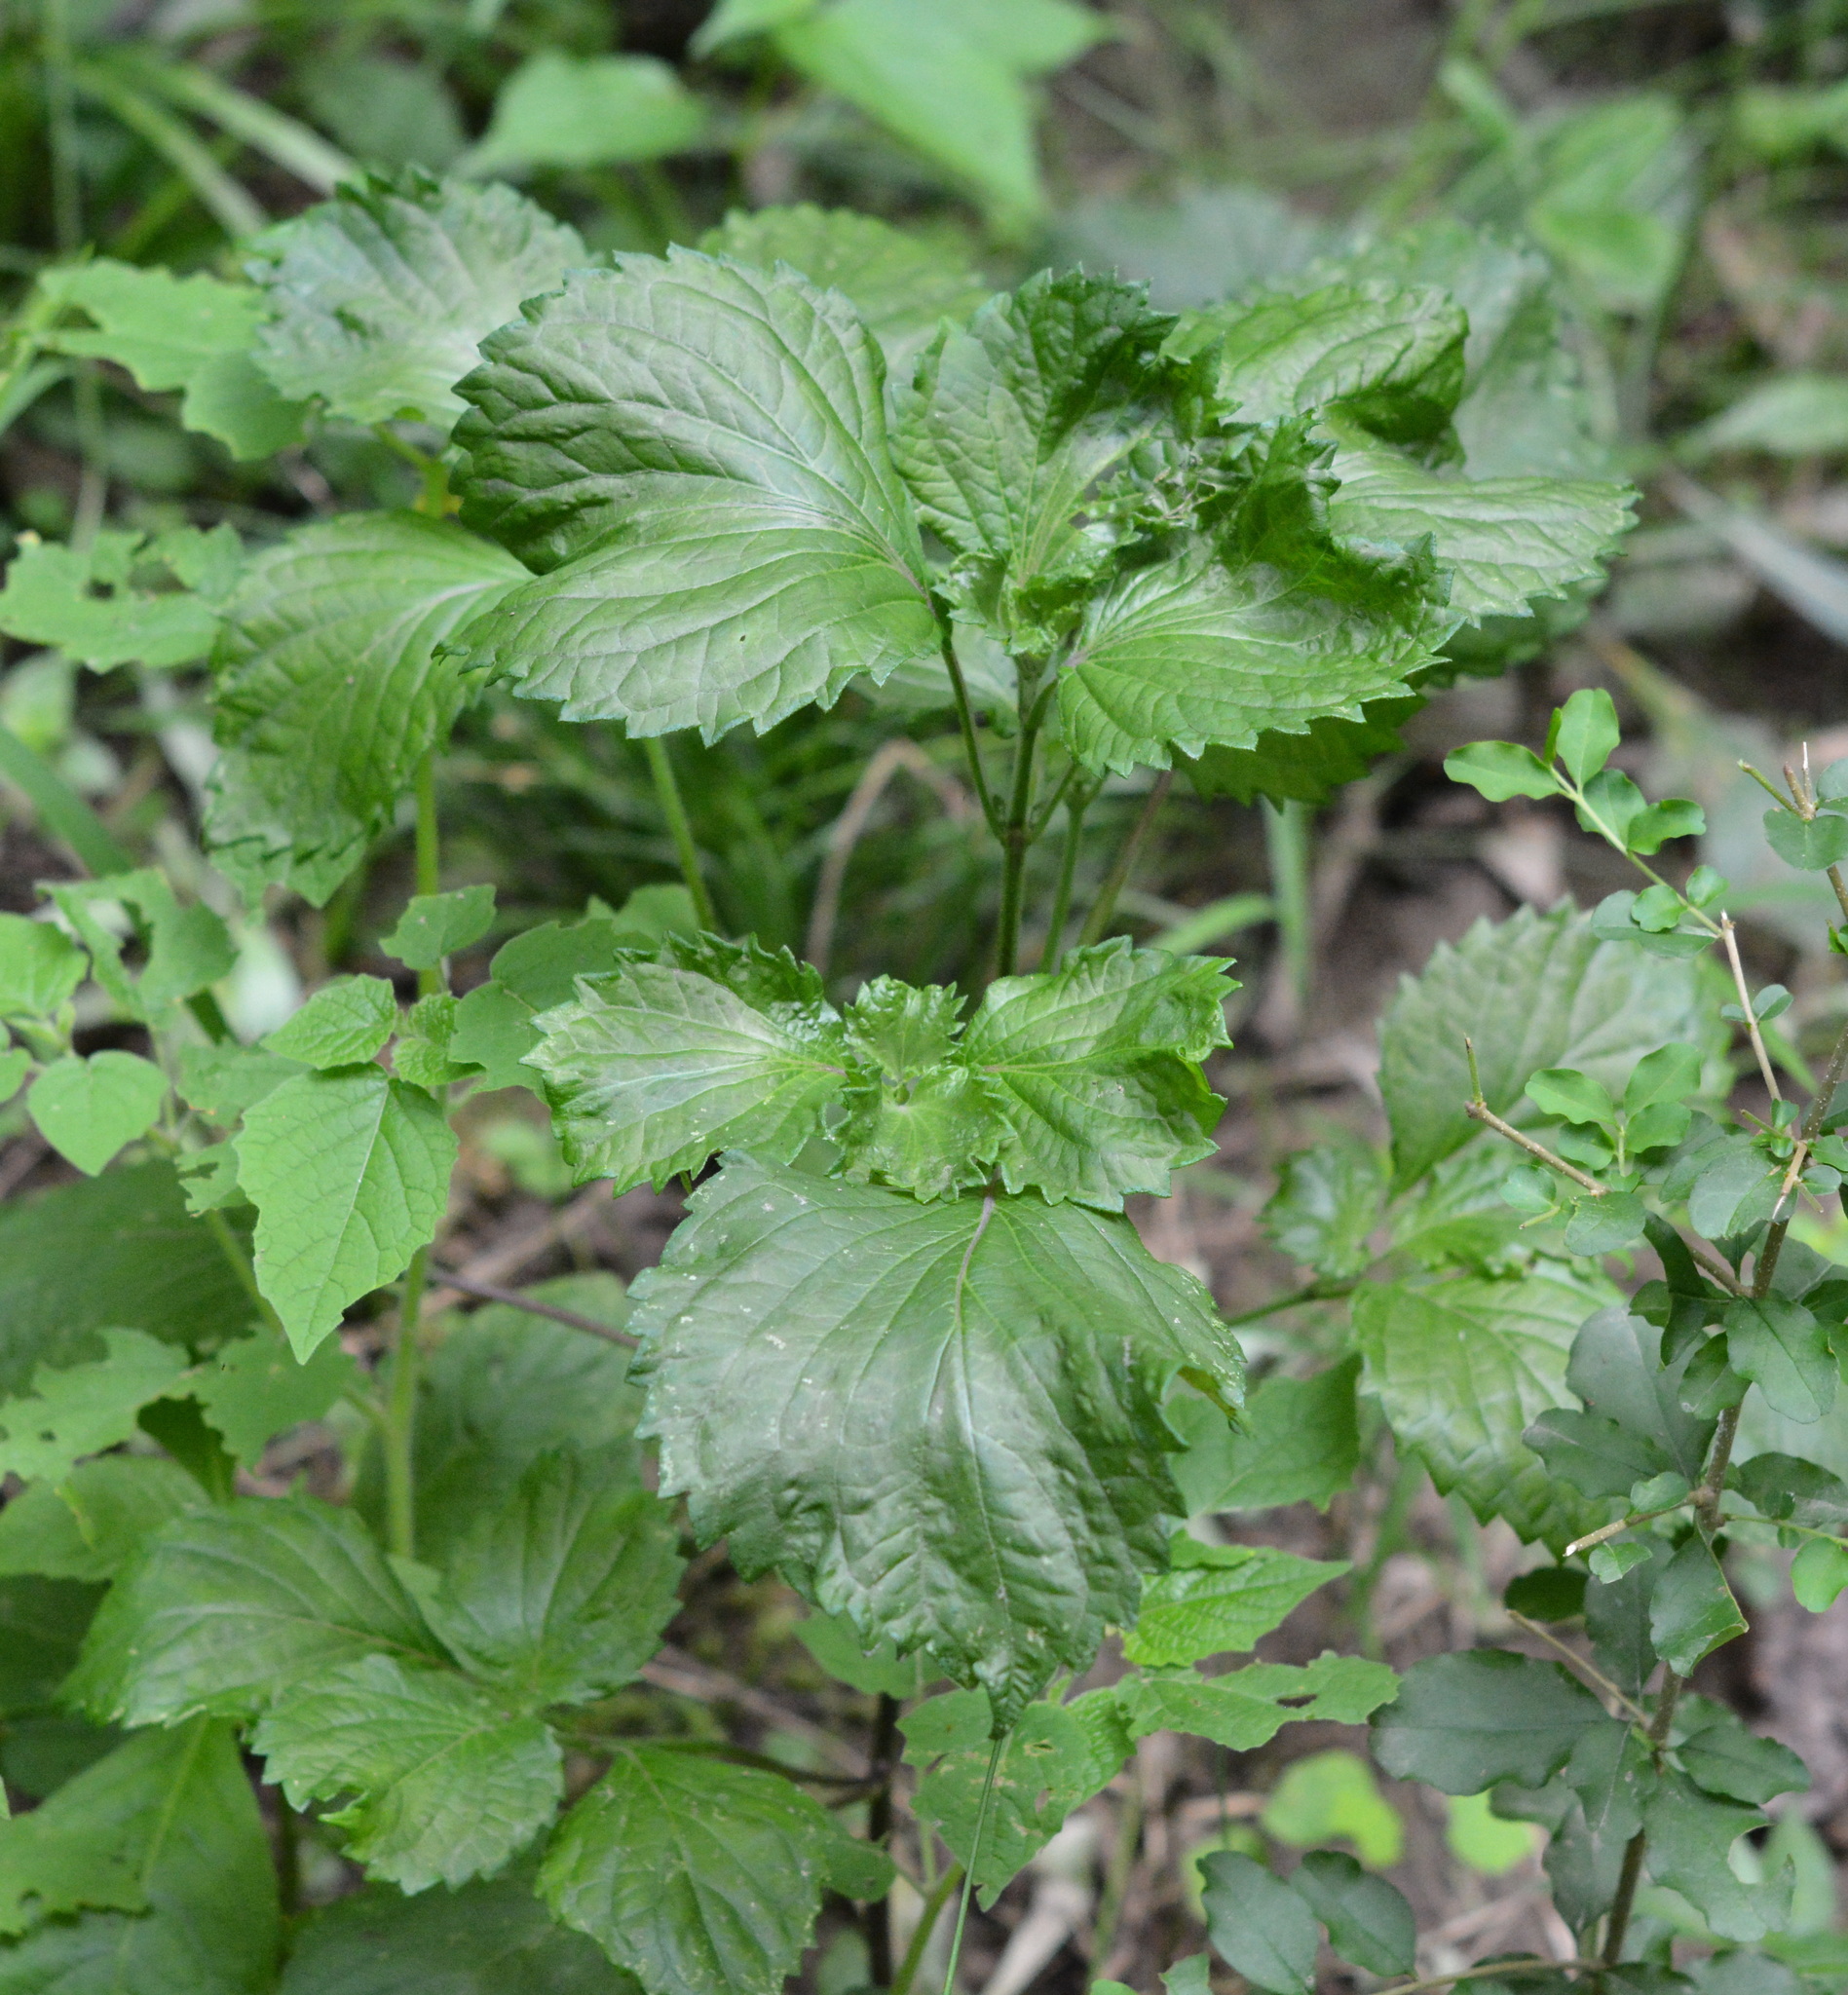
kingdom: Plantae
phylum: Tracheophyta
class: Magnoliopsida
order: Lamiales
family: Lamiaceae
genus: Perilla
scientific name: Perilla frutescens
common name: Perilla
